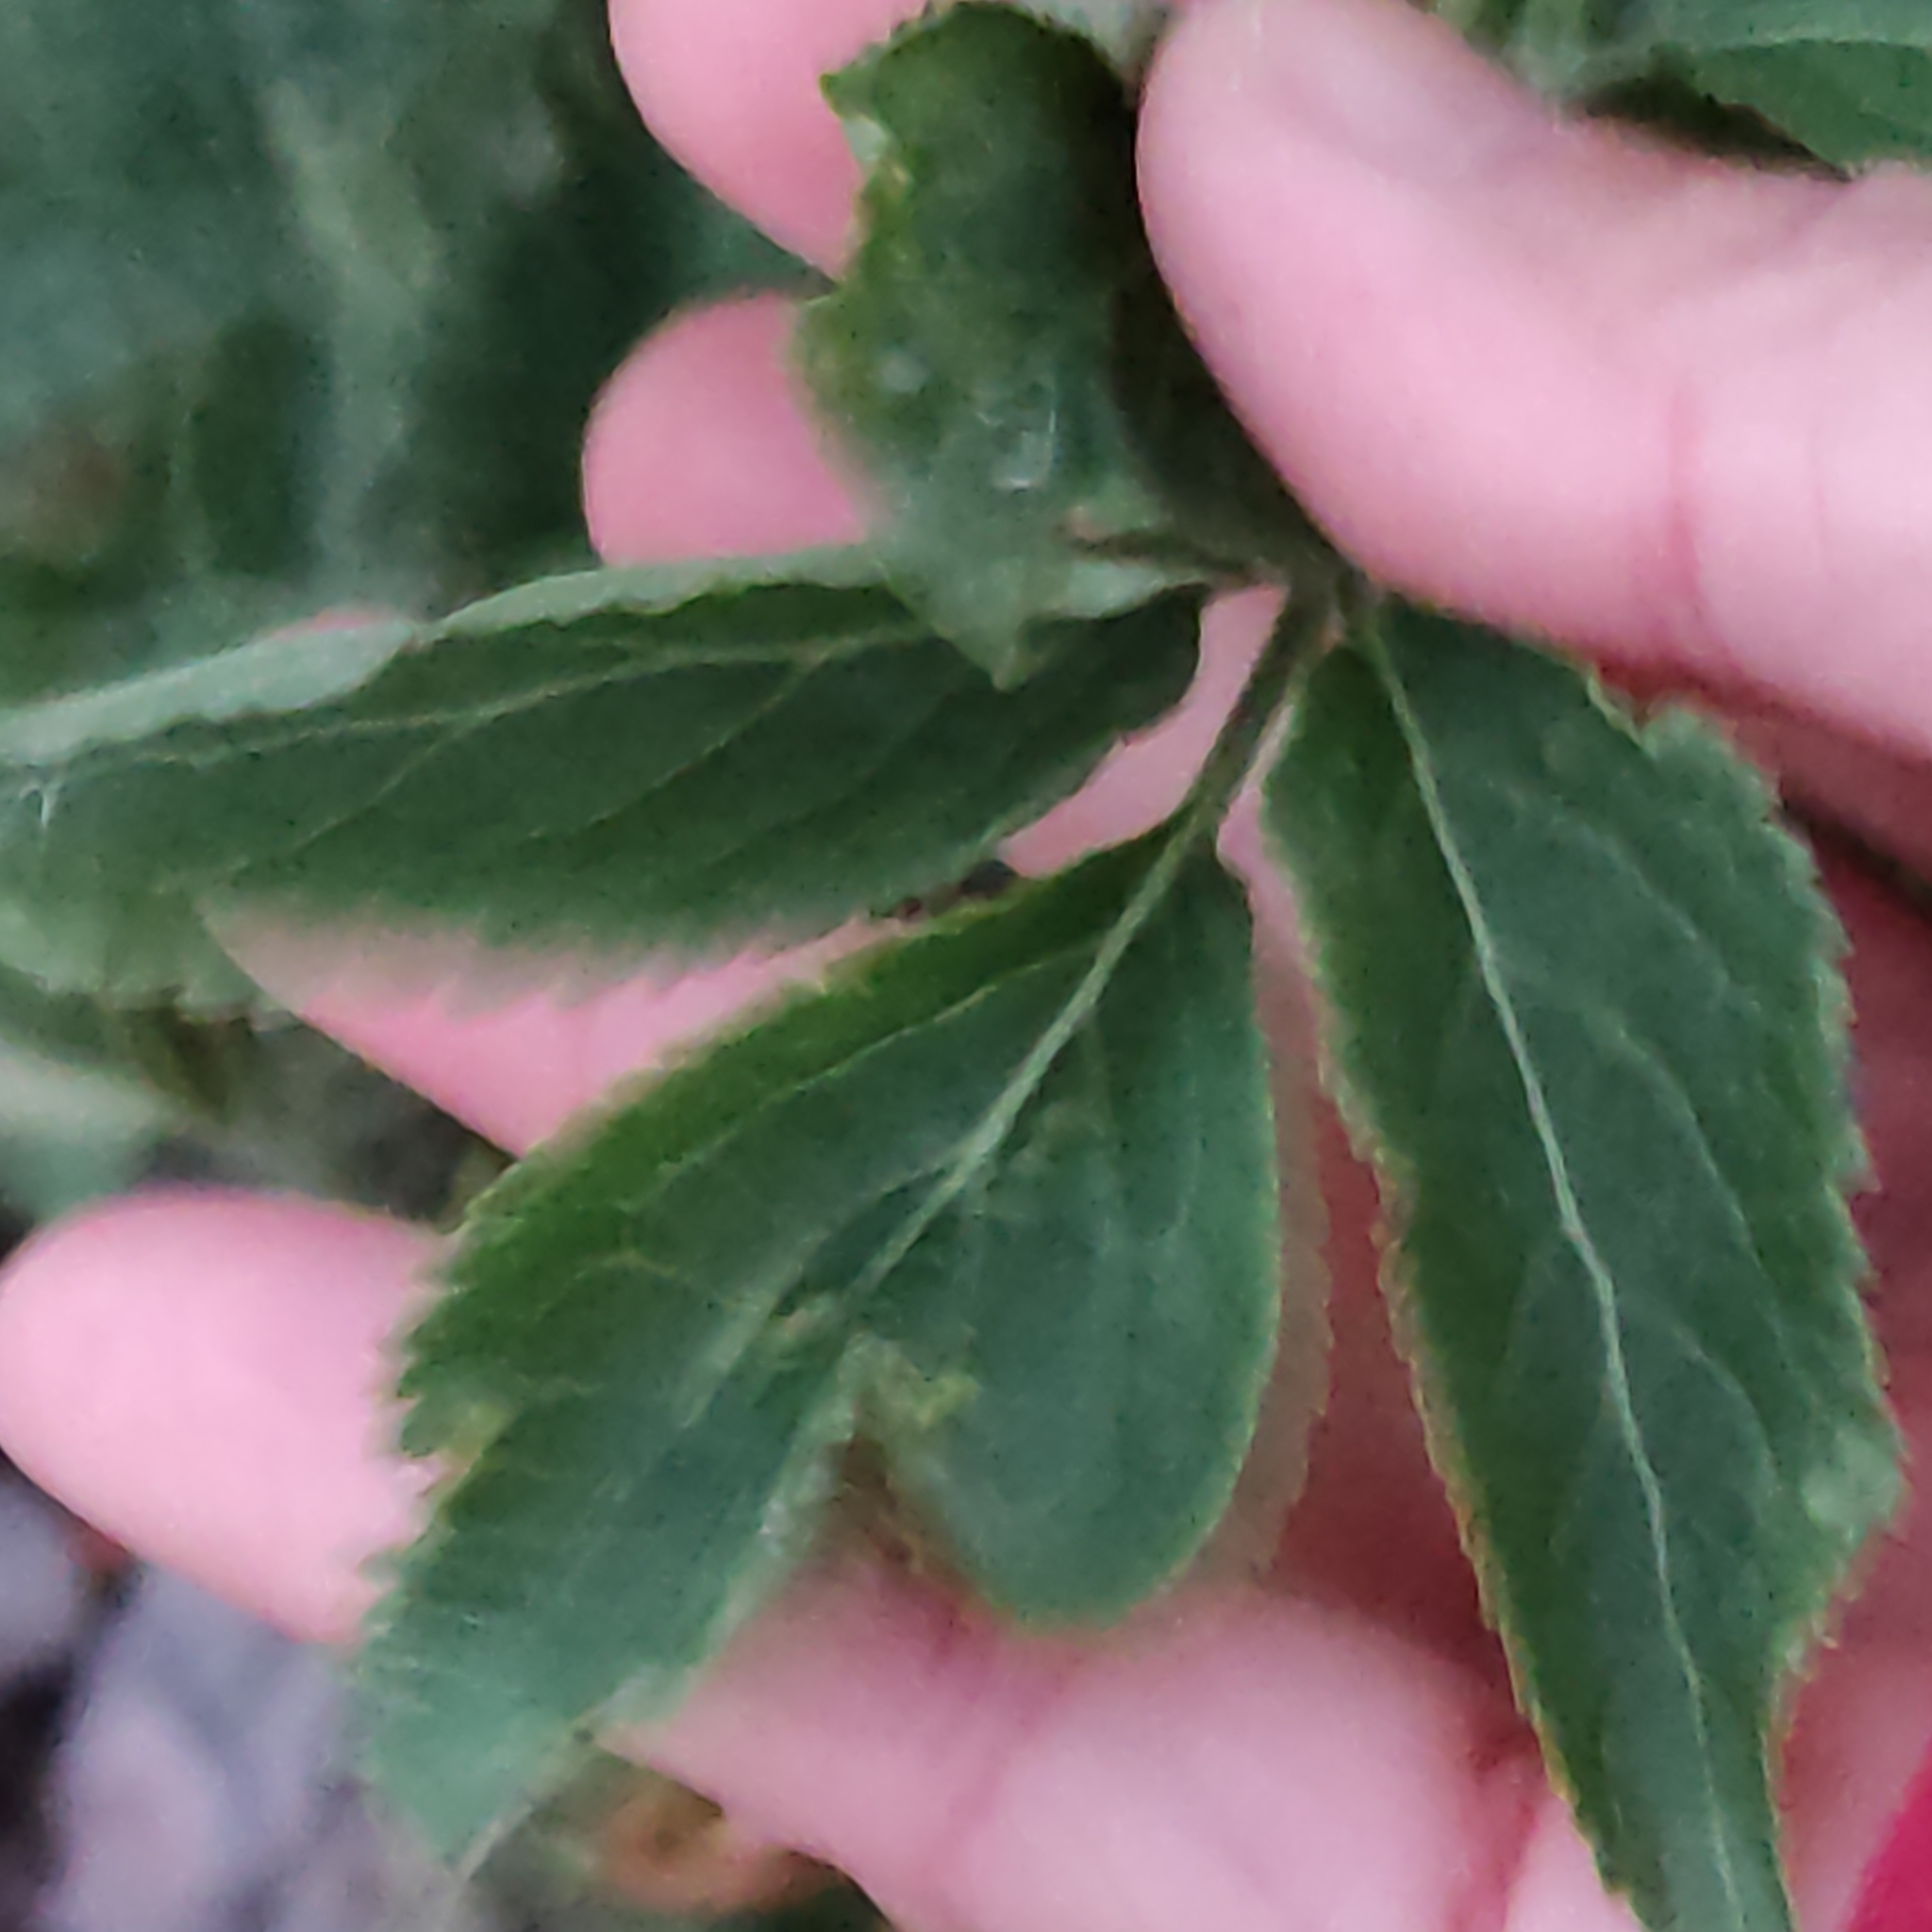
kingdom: Plantae
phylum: Tracheophyta
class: Magnoliopsida
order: Dipsacales
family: Viburnaceae
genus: Sambucus
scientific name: Sambucus nigra
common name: Elder
